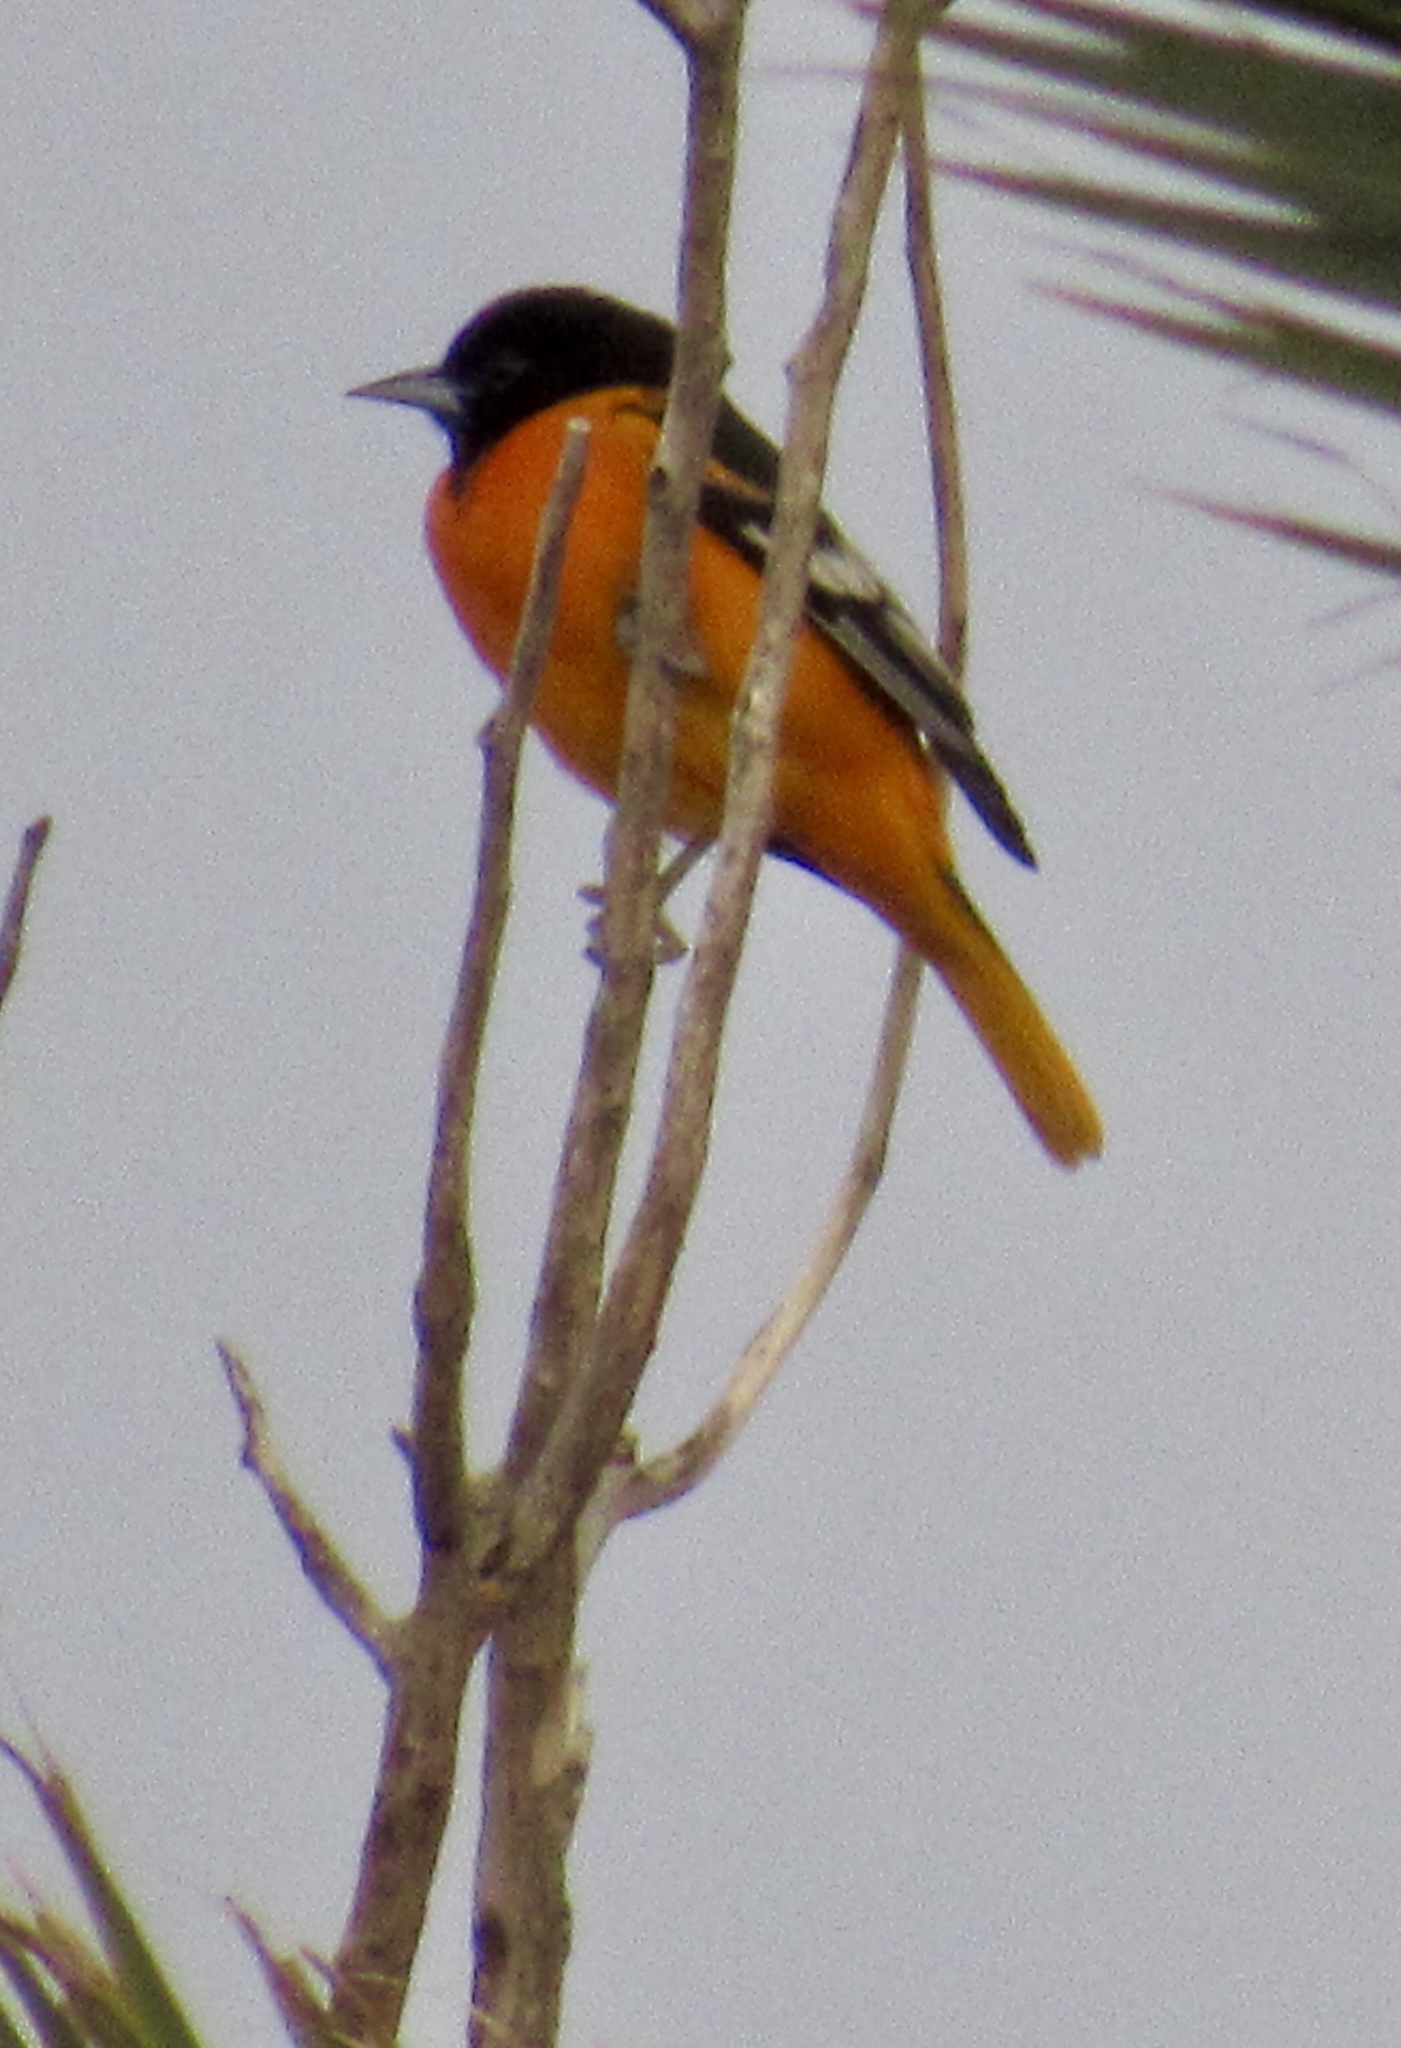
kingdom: Animalia
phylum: Chordata
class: Aves
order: Passeriformes
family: Icteridae
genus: Icterus
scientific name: Icterus galbula
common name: Baltimore oriole
